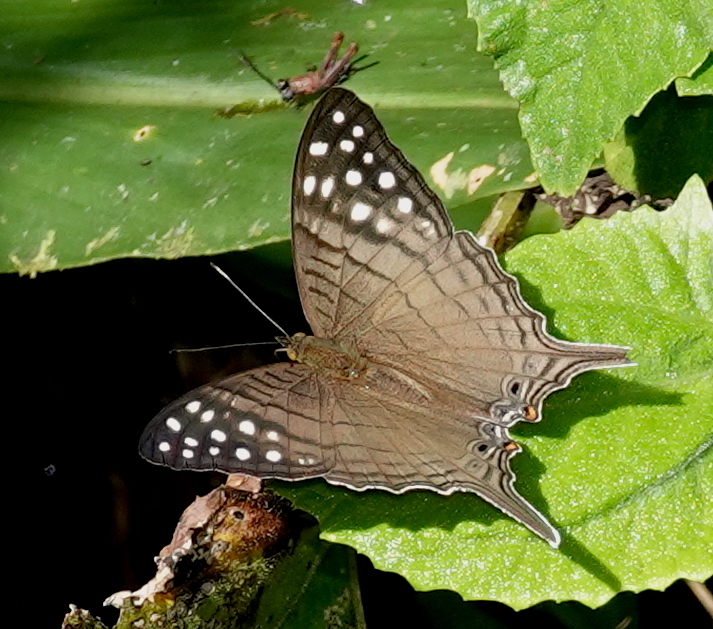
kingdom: Animalia
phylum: Arthropoda
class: Insecta
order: Lepidoptera
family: Nymphalidae
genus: Marpesia
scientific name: Marpesia merops
